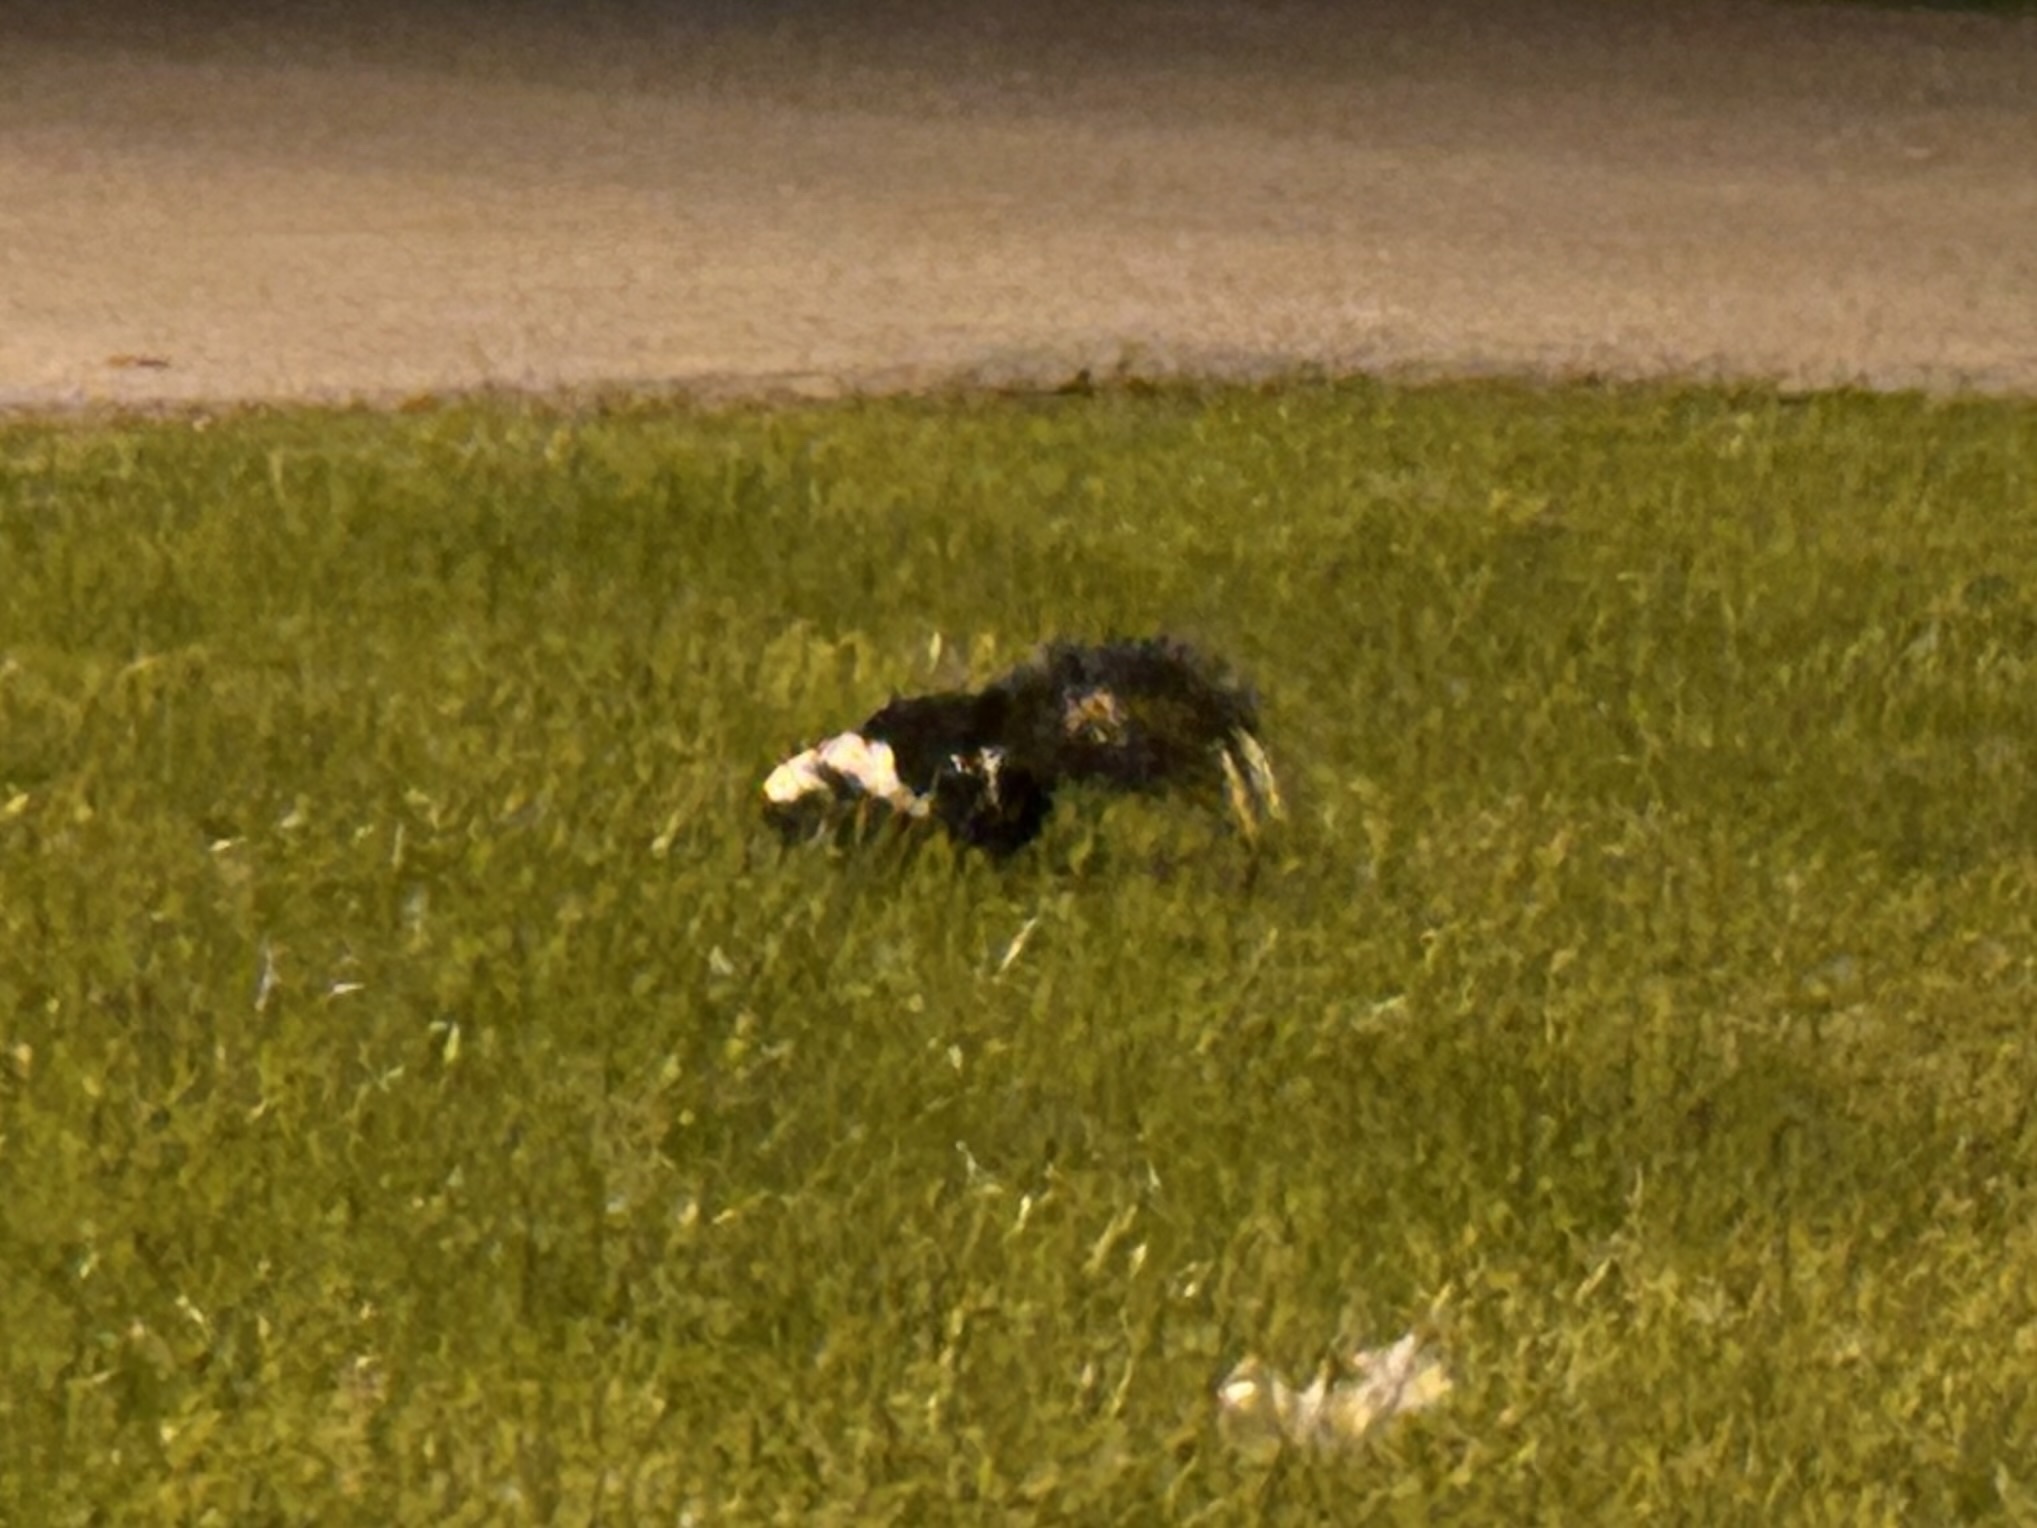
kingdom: Animalia
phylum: Chordata
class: Mammalia
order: Carnivora
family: Mephitidae
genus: Mephitis
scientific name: Mephitis mephitis
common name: Striped skunk
